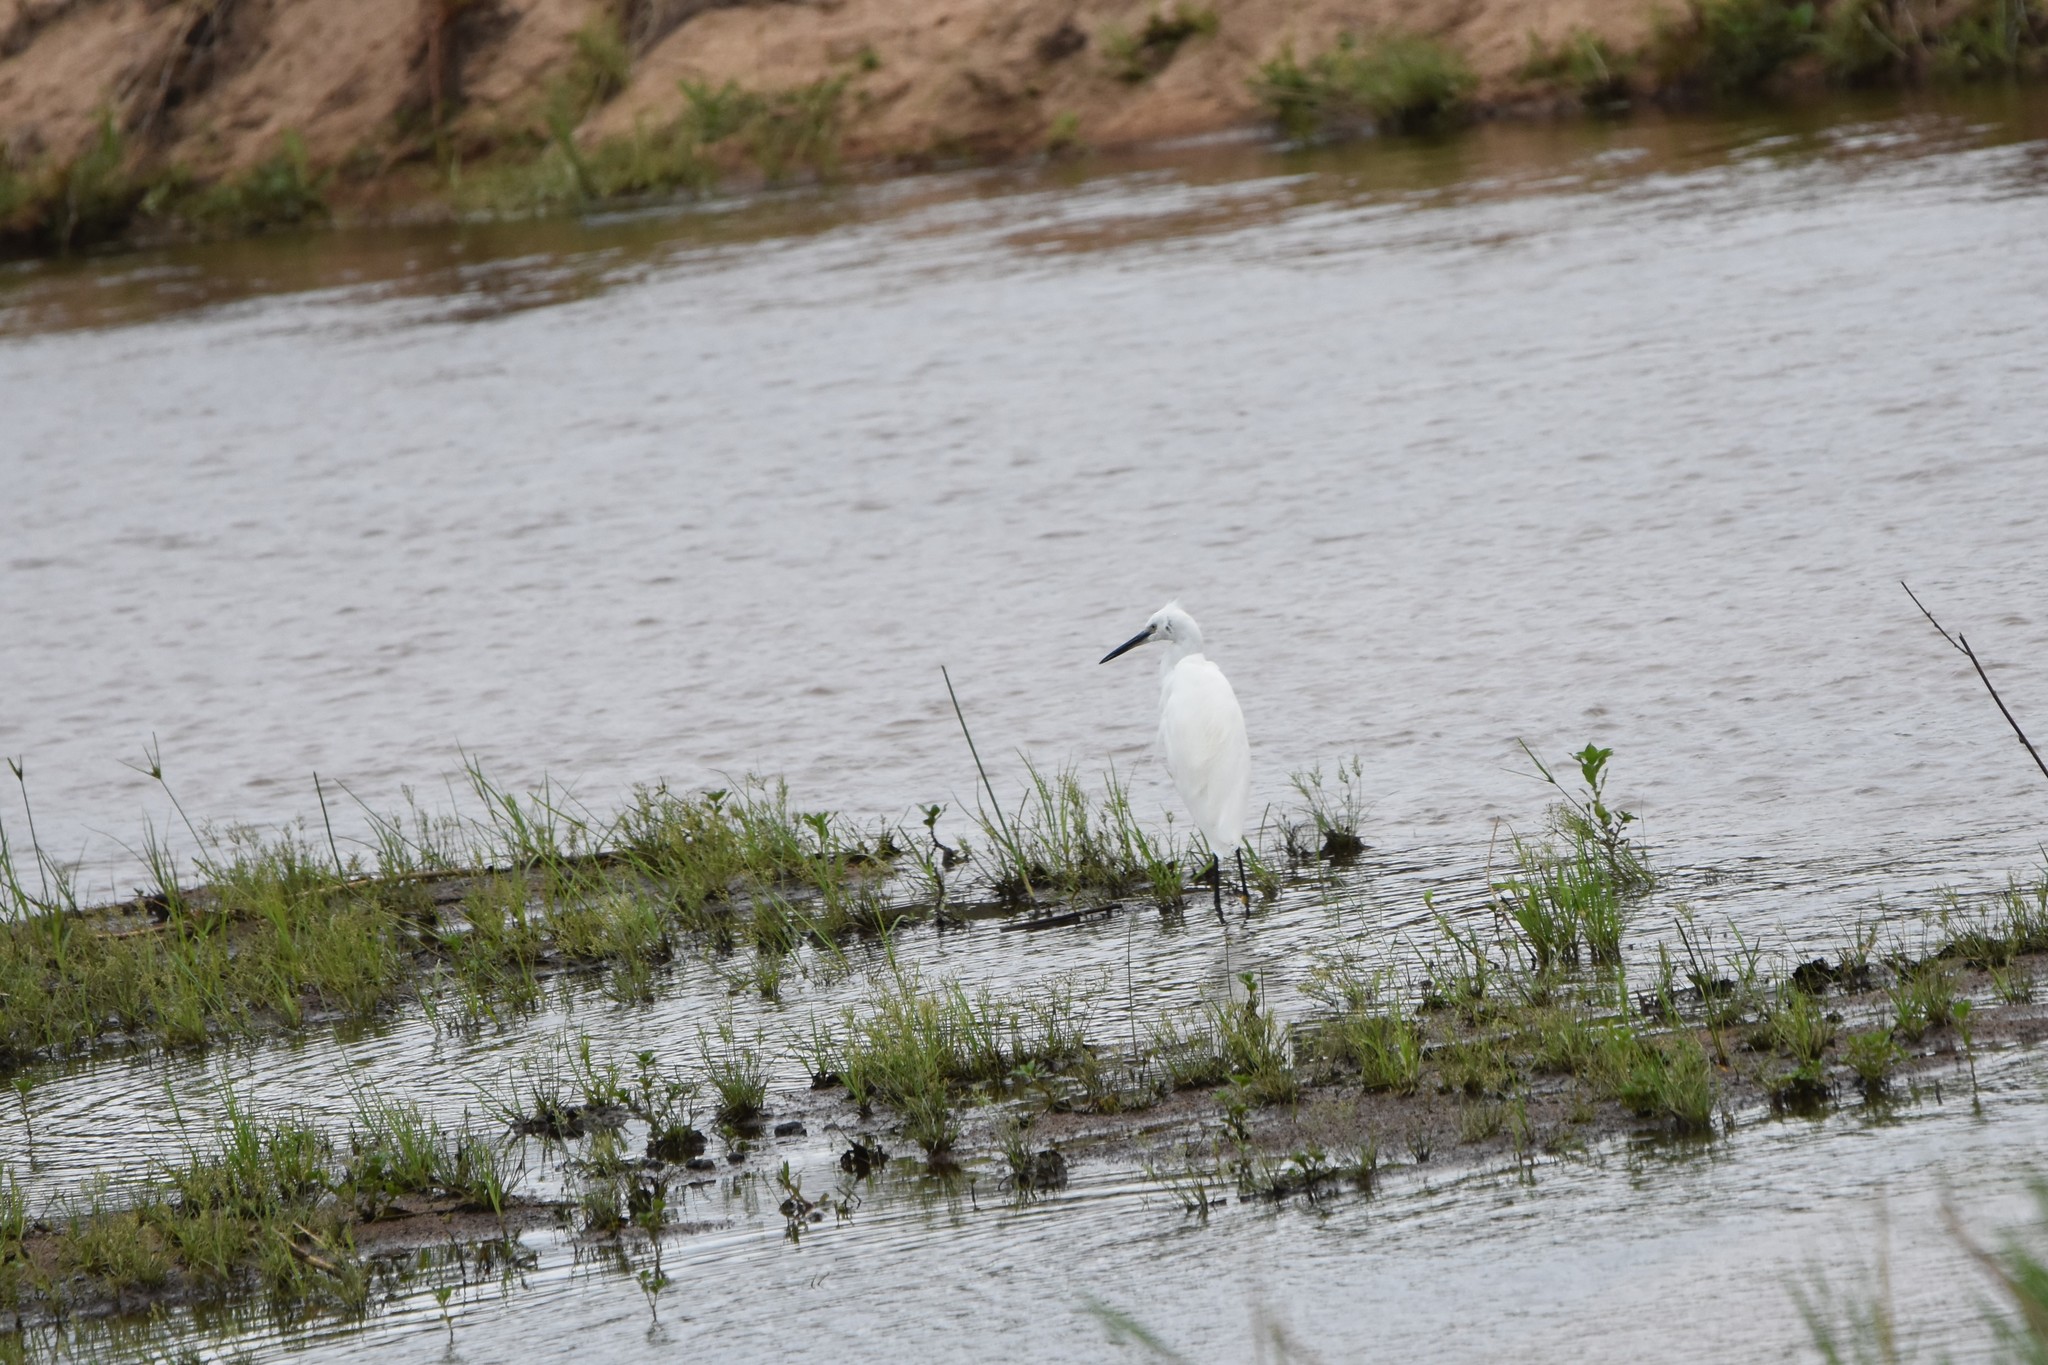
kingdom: Animalia
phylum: Chordata
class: Aves
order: Pelecaniformes
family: Ardeidae
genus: Egretta
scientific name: Egretta garzetta
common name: Little egret
